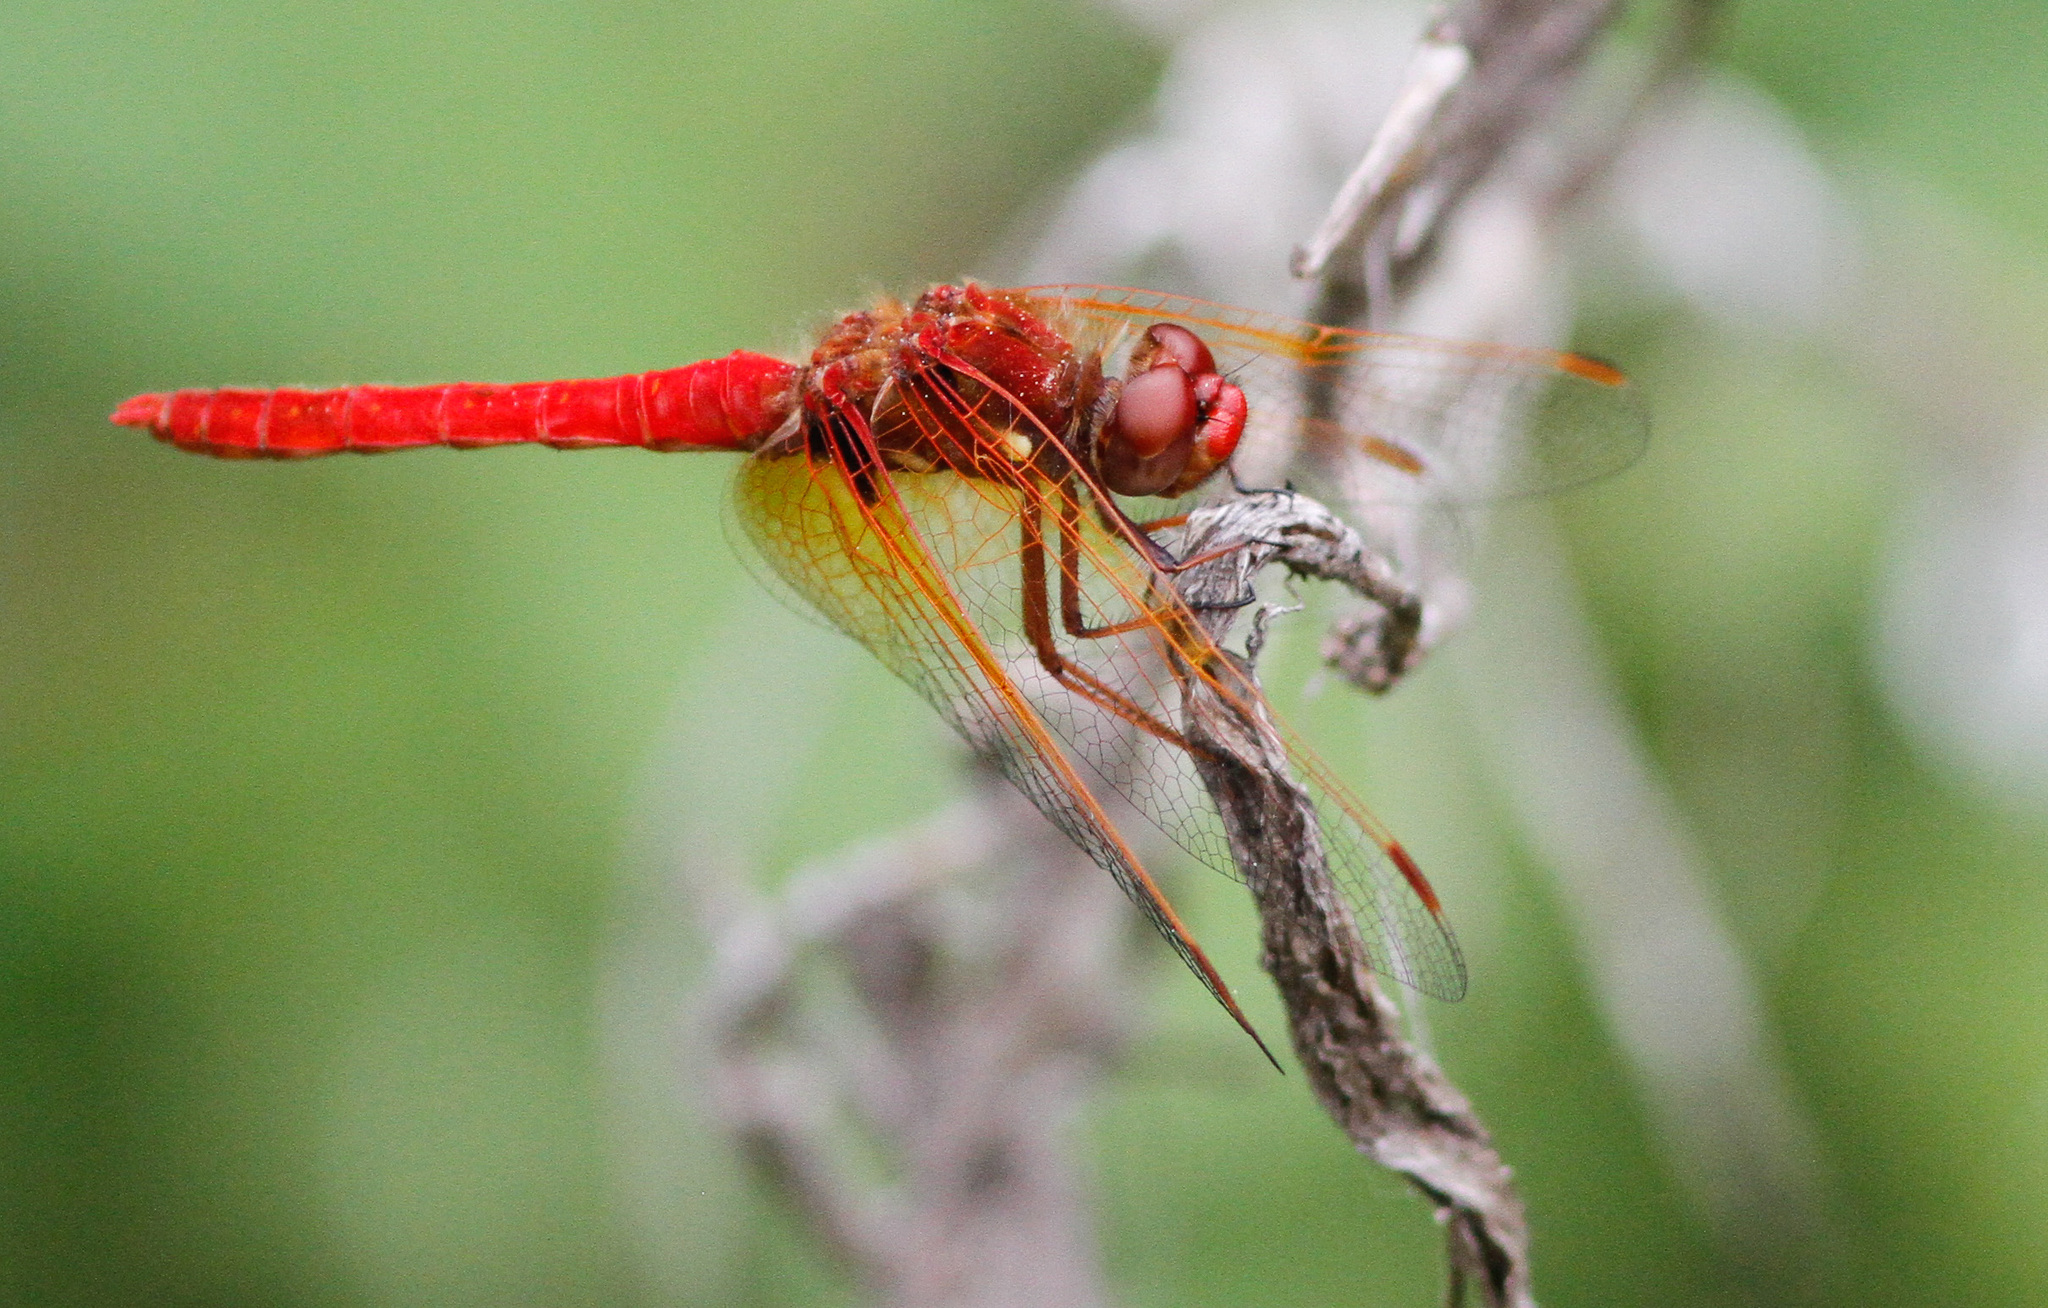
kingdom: Animalia
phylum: Arthropoda
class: Insecta
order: Odonata
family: Libellulidae
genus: Sympetrum
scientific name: Sympetrum illotum
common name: Cardinal meadowhawk
